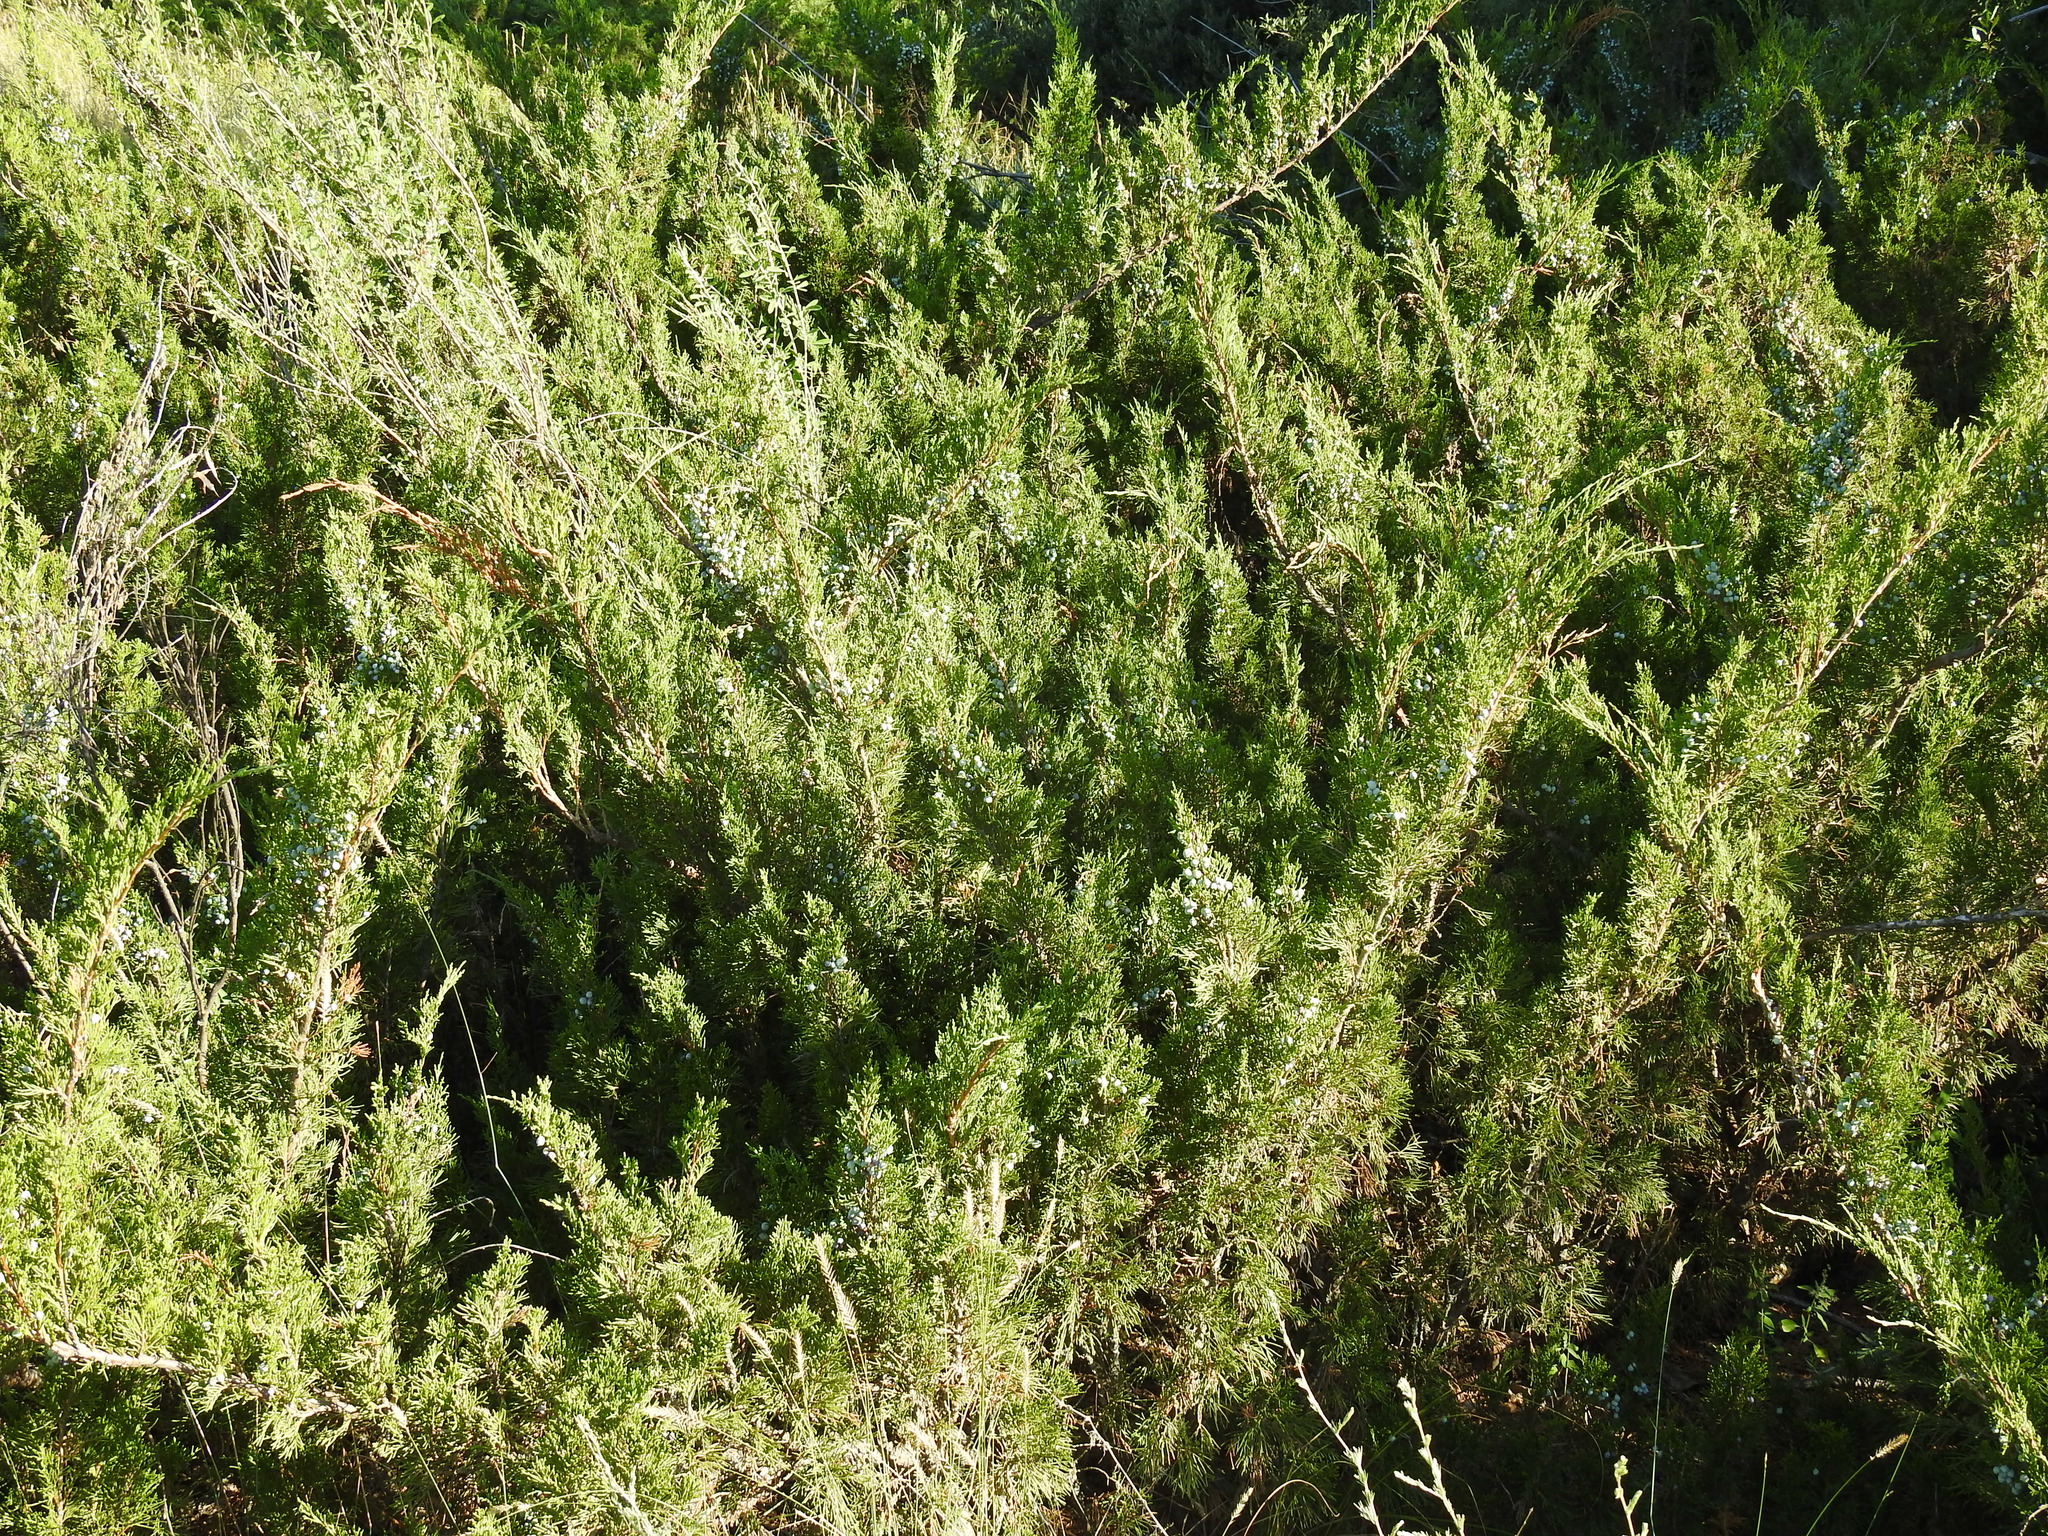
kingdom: Plantae
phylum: Tracheophyta
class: Pinopsida
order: Pinales
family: Cupressaceae
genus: Juniperus
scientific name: Juniperus sabina
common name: Savin
